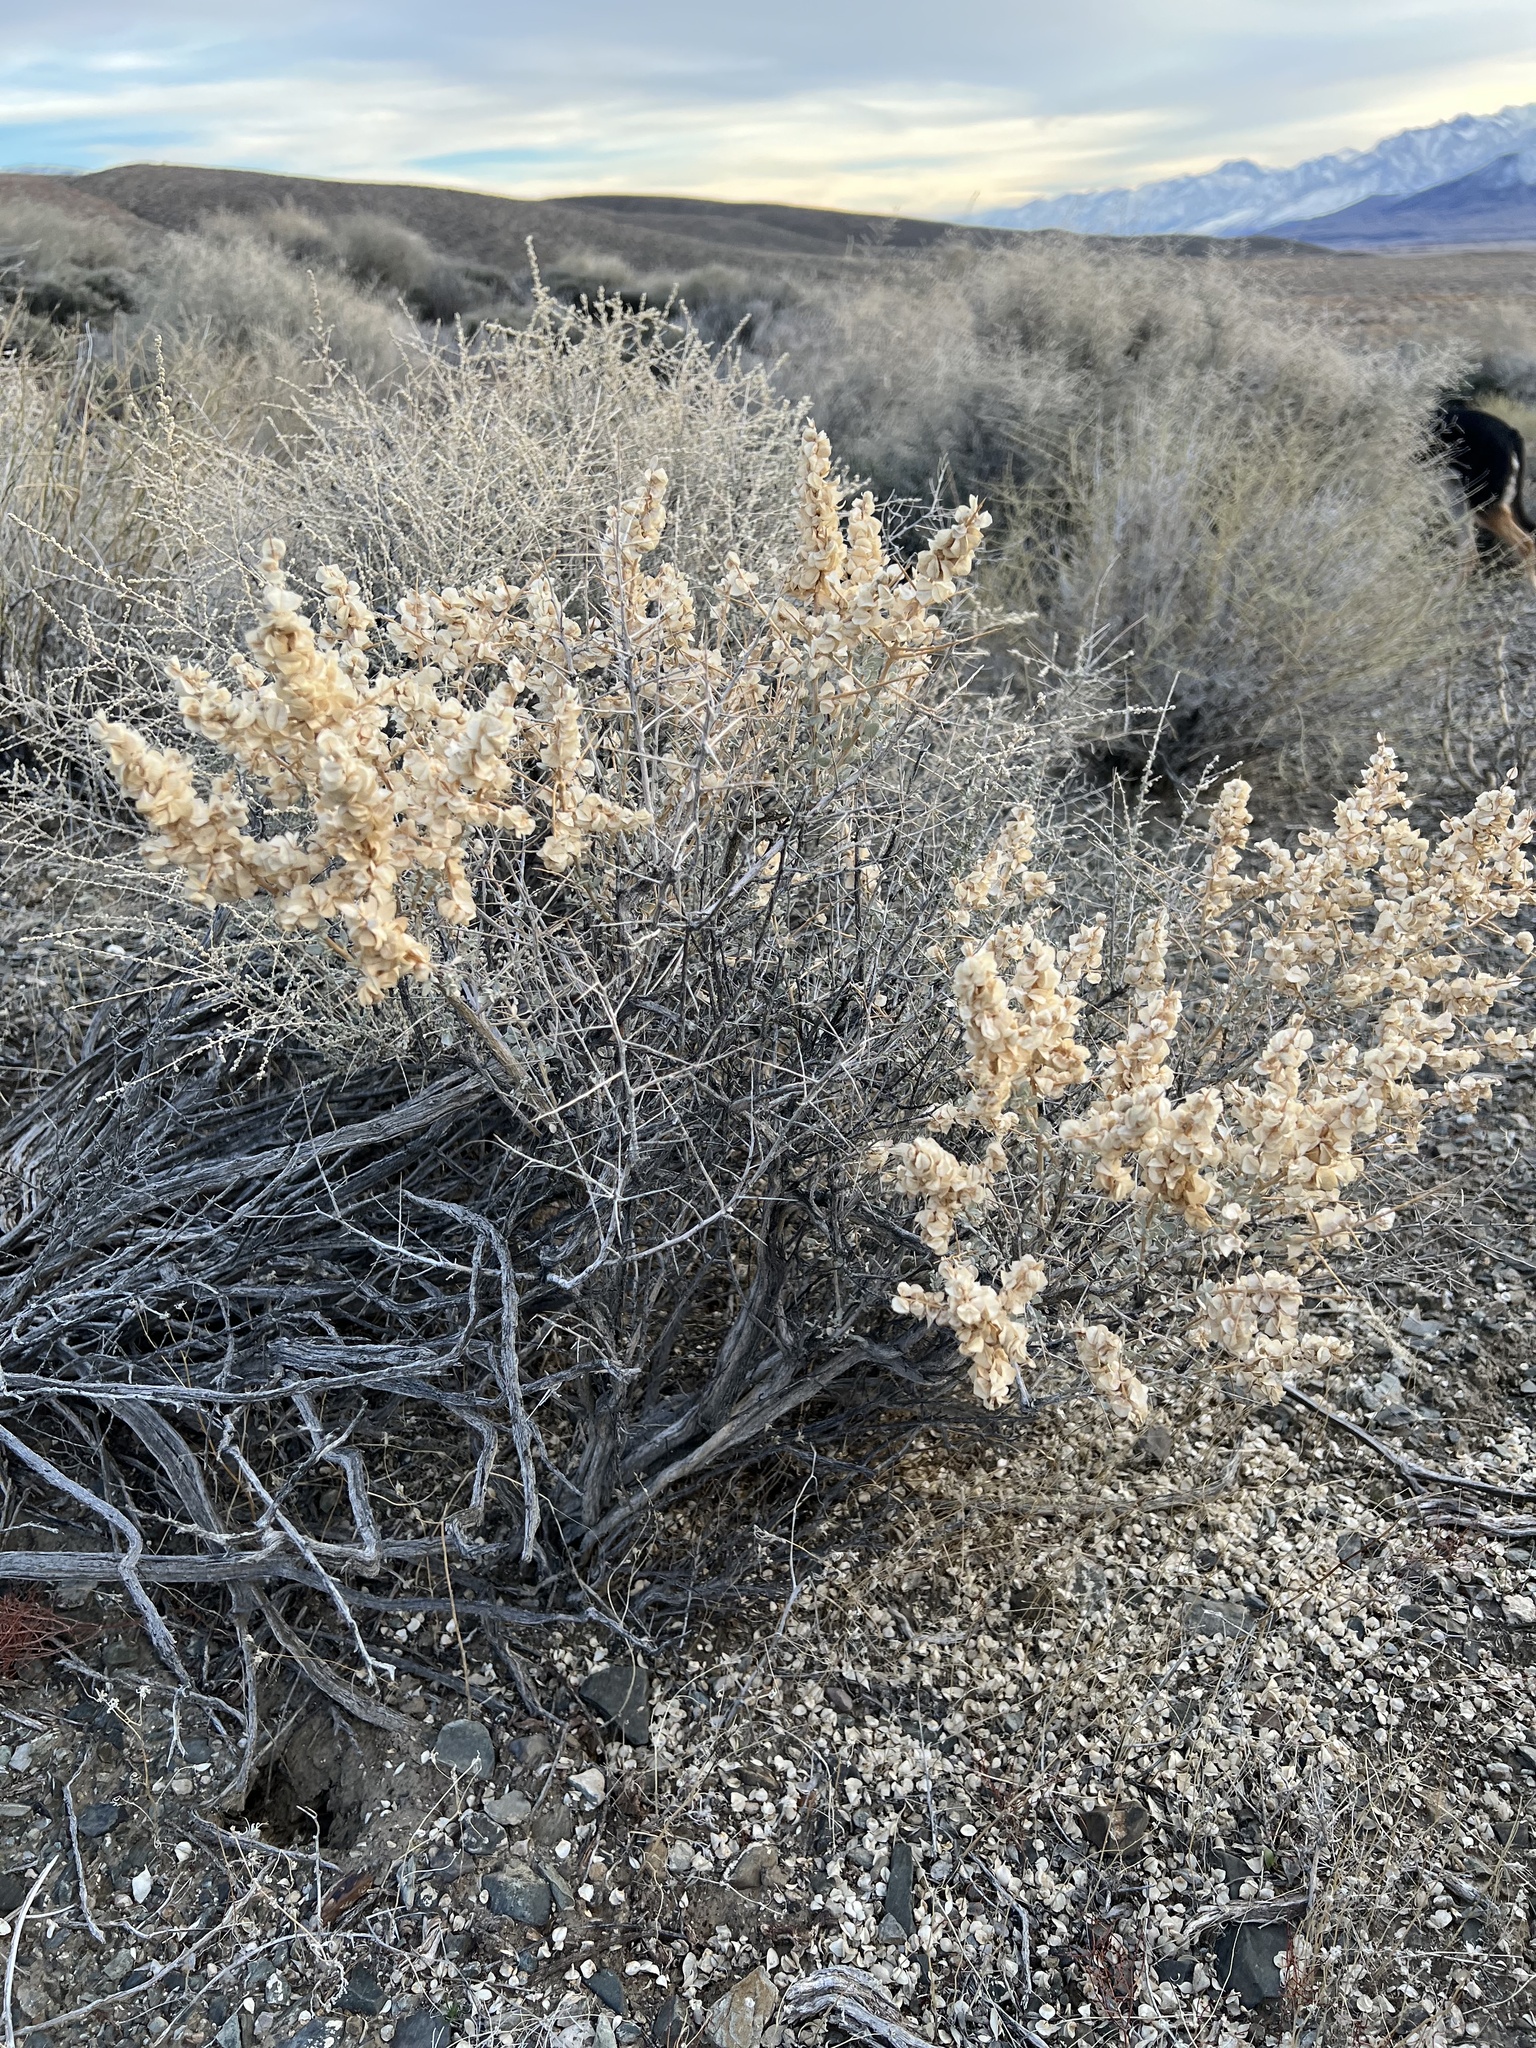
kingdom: Plantae
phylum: Tracheophyta
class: Magnoliopsida
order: Caryophyllales
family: Amaranthaceae
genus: Atriplex
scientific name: Atriplex confertifolia
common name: Shadscale
